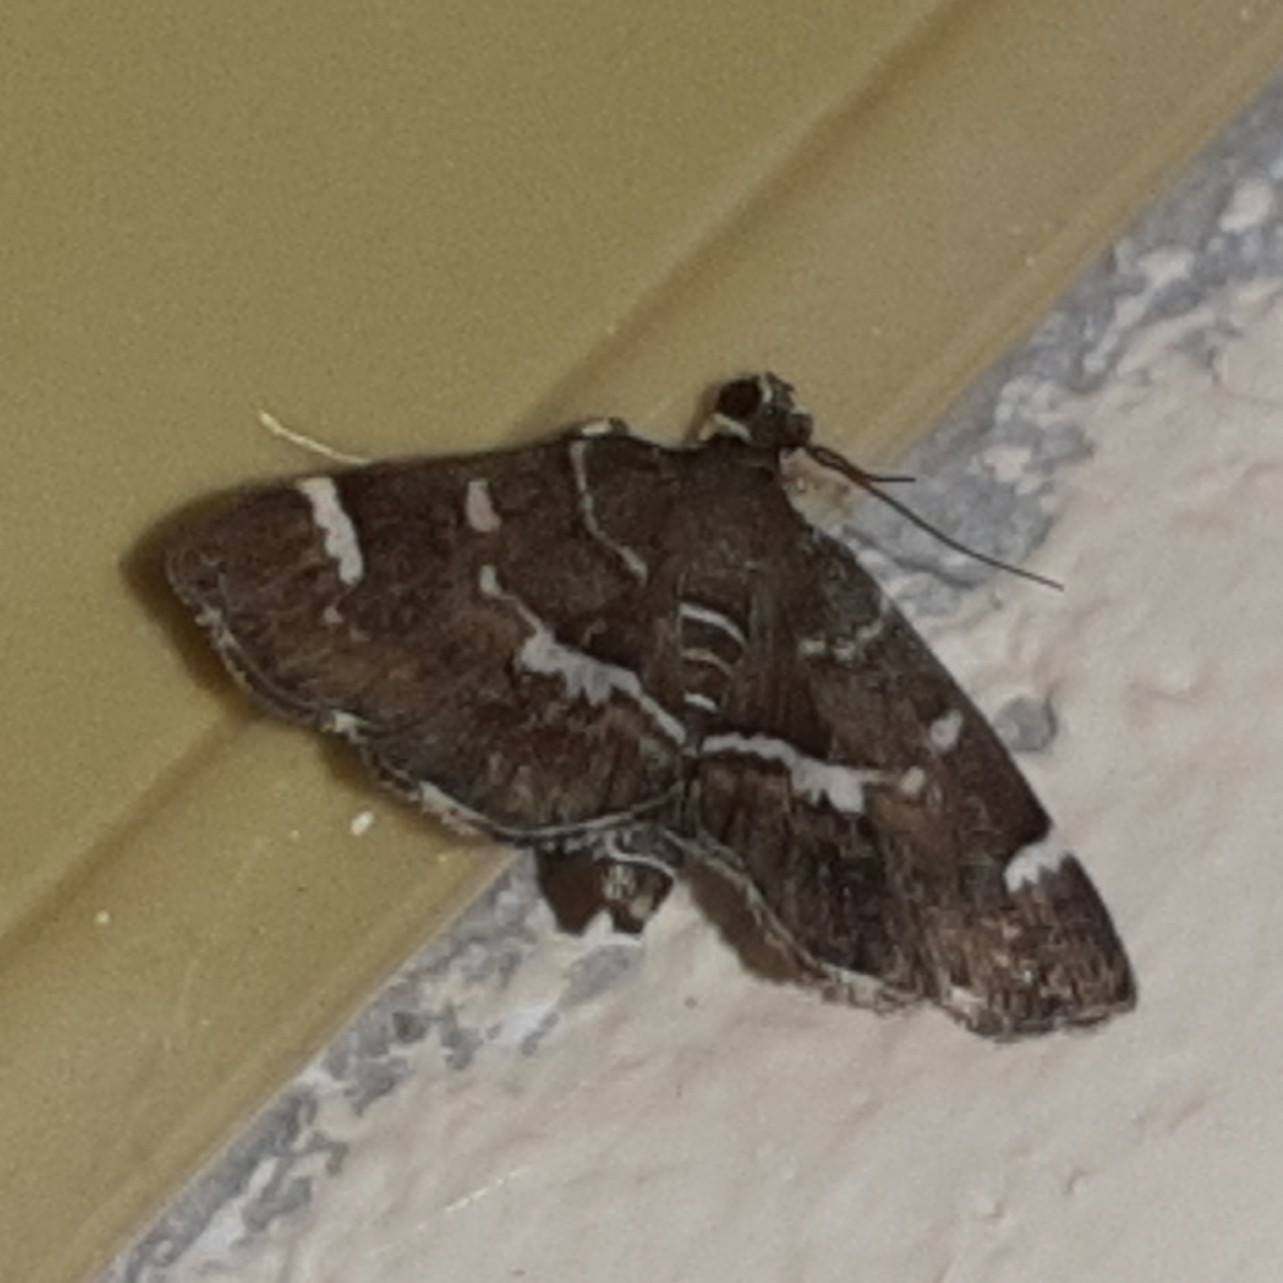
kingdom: Animalia
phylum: Arthropoda
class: Insecta
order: Lepidoptera
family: Crambidae
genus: Hymenia
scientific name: Hymenia perspectalis
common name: Spotted beet webworm
